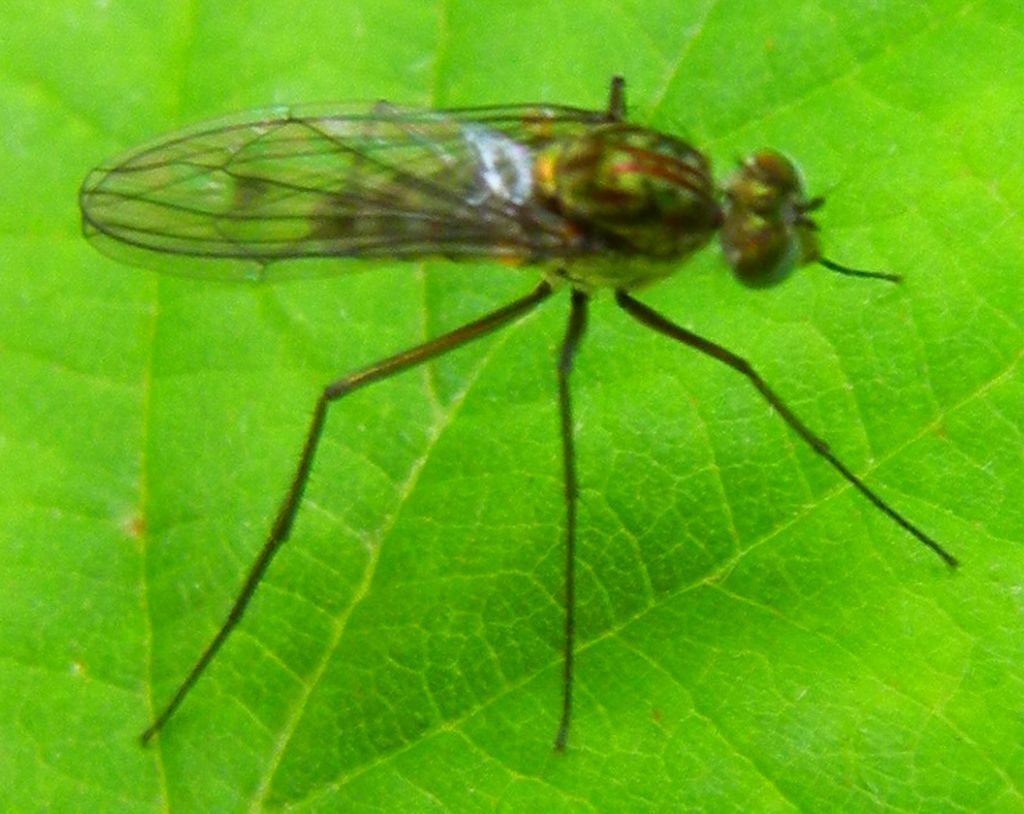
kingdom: Animalia
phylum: Arthropoda
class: Insecta
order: Diptera
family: Dolichopodidae
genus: Liancalus
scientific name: Liancalus virens
